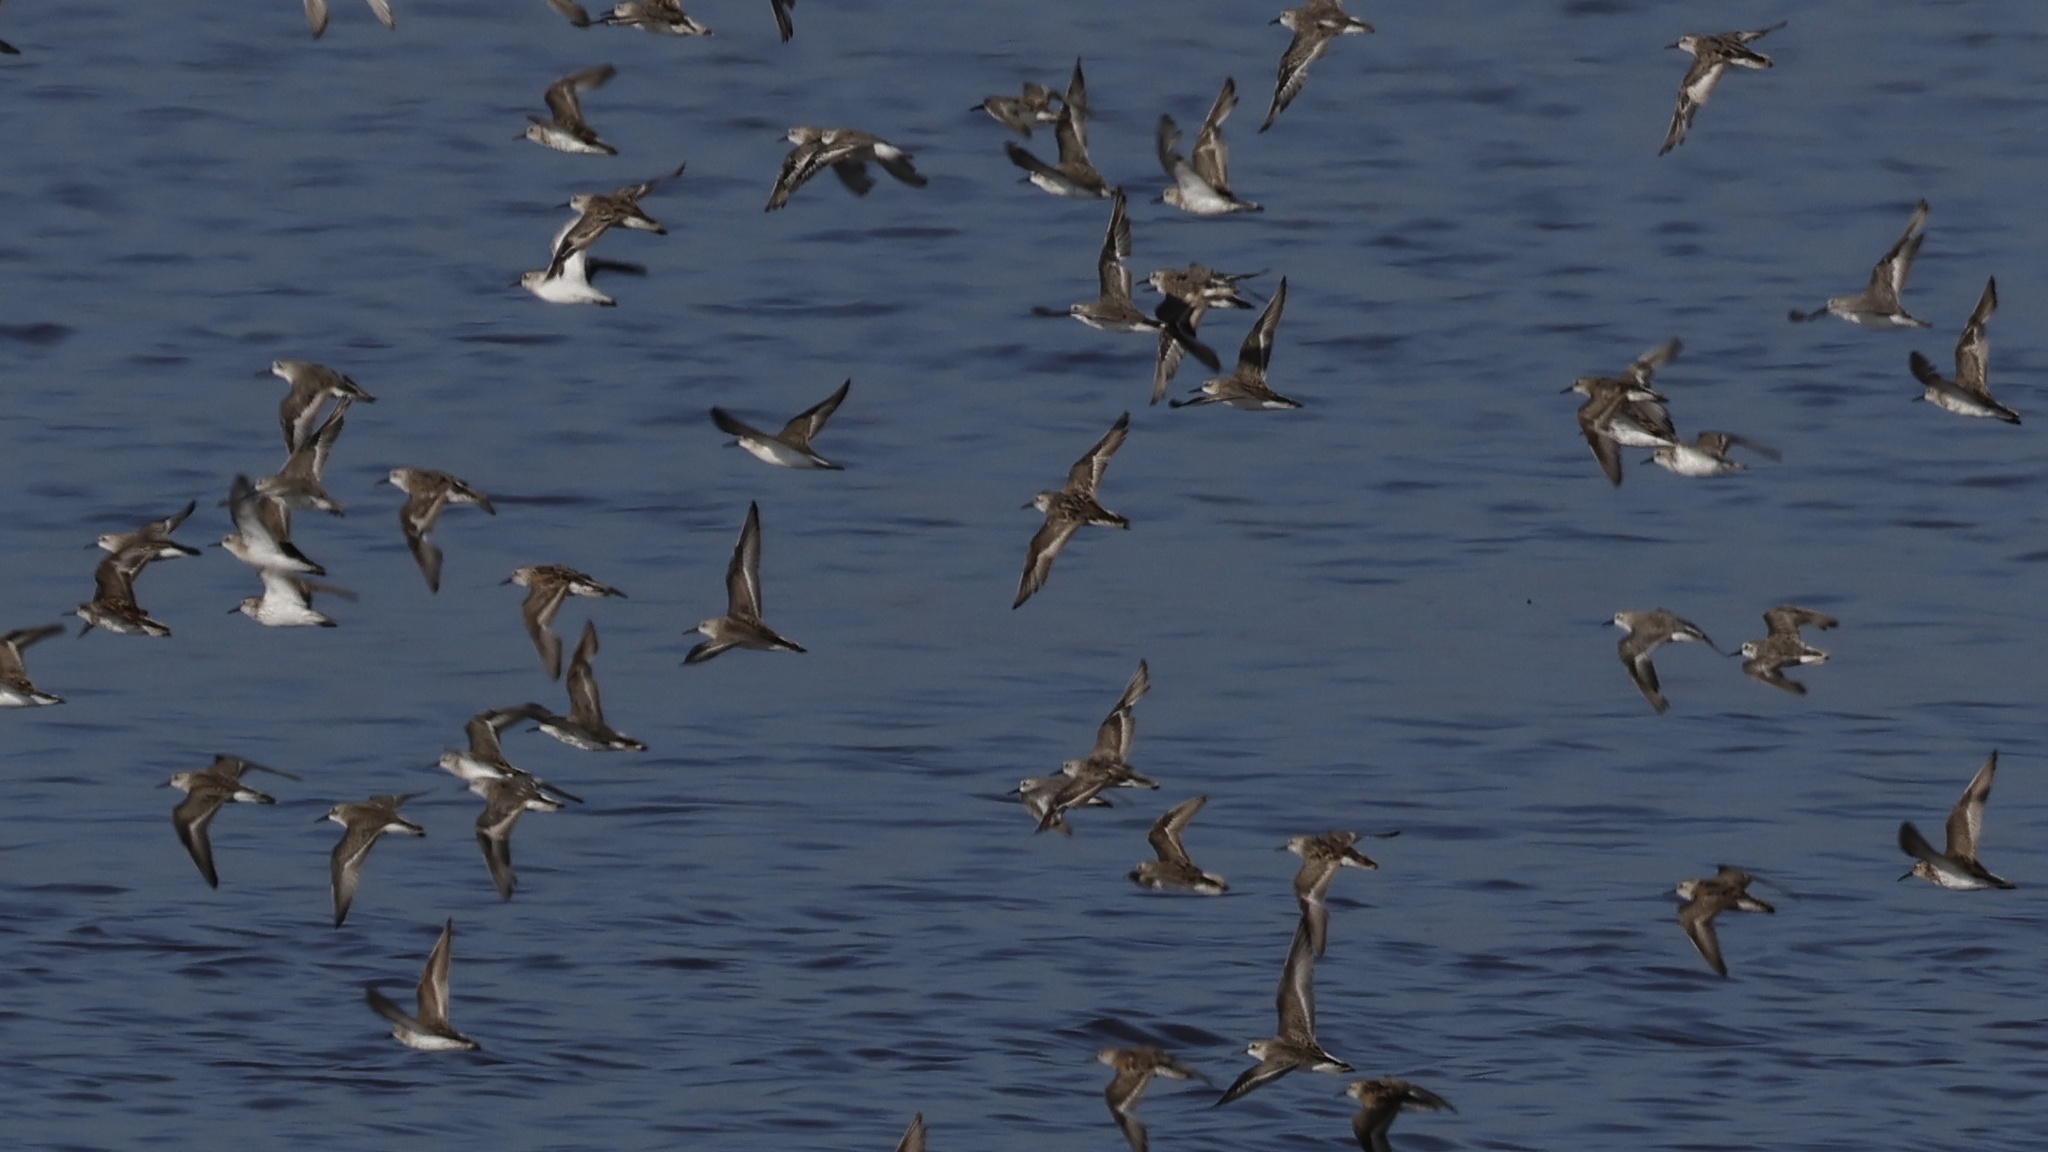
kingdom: Animalia
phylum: Chordata
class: Aves
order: Charadriiformes
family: Scolopacidae
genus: Calidris
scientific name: Calidris mauri
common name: Western sandpiper
